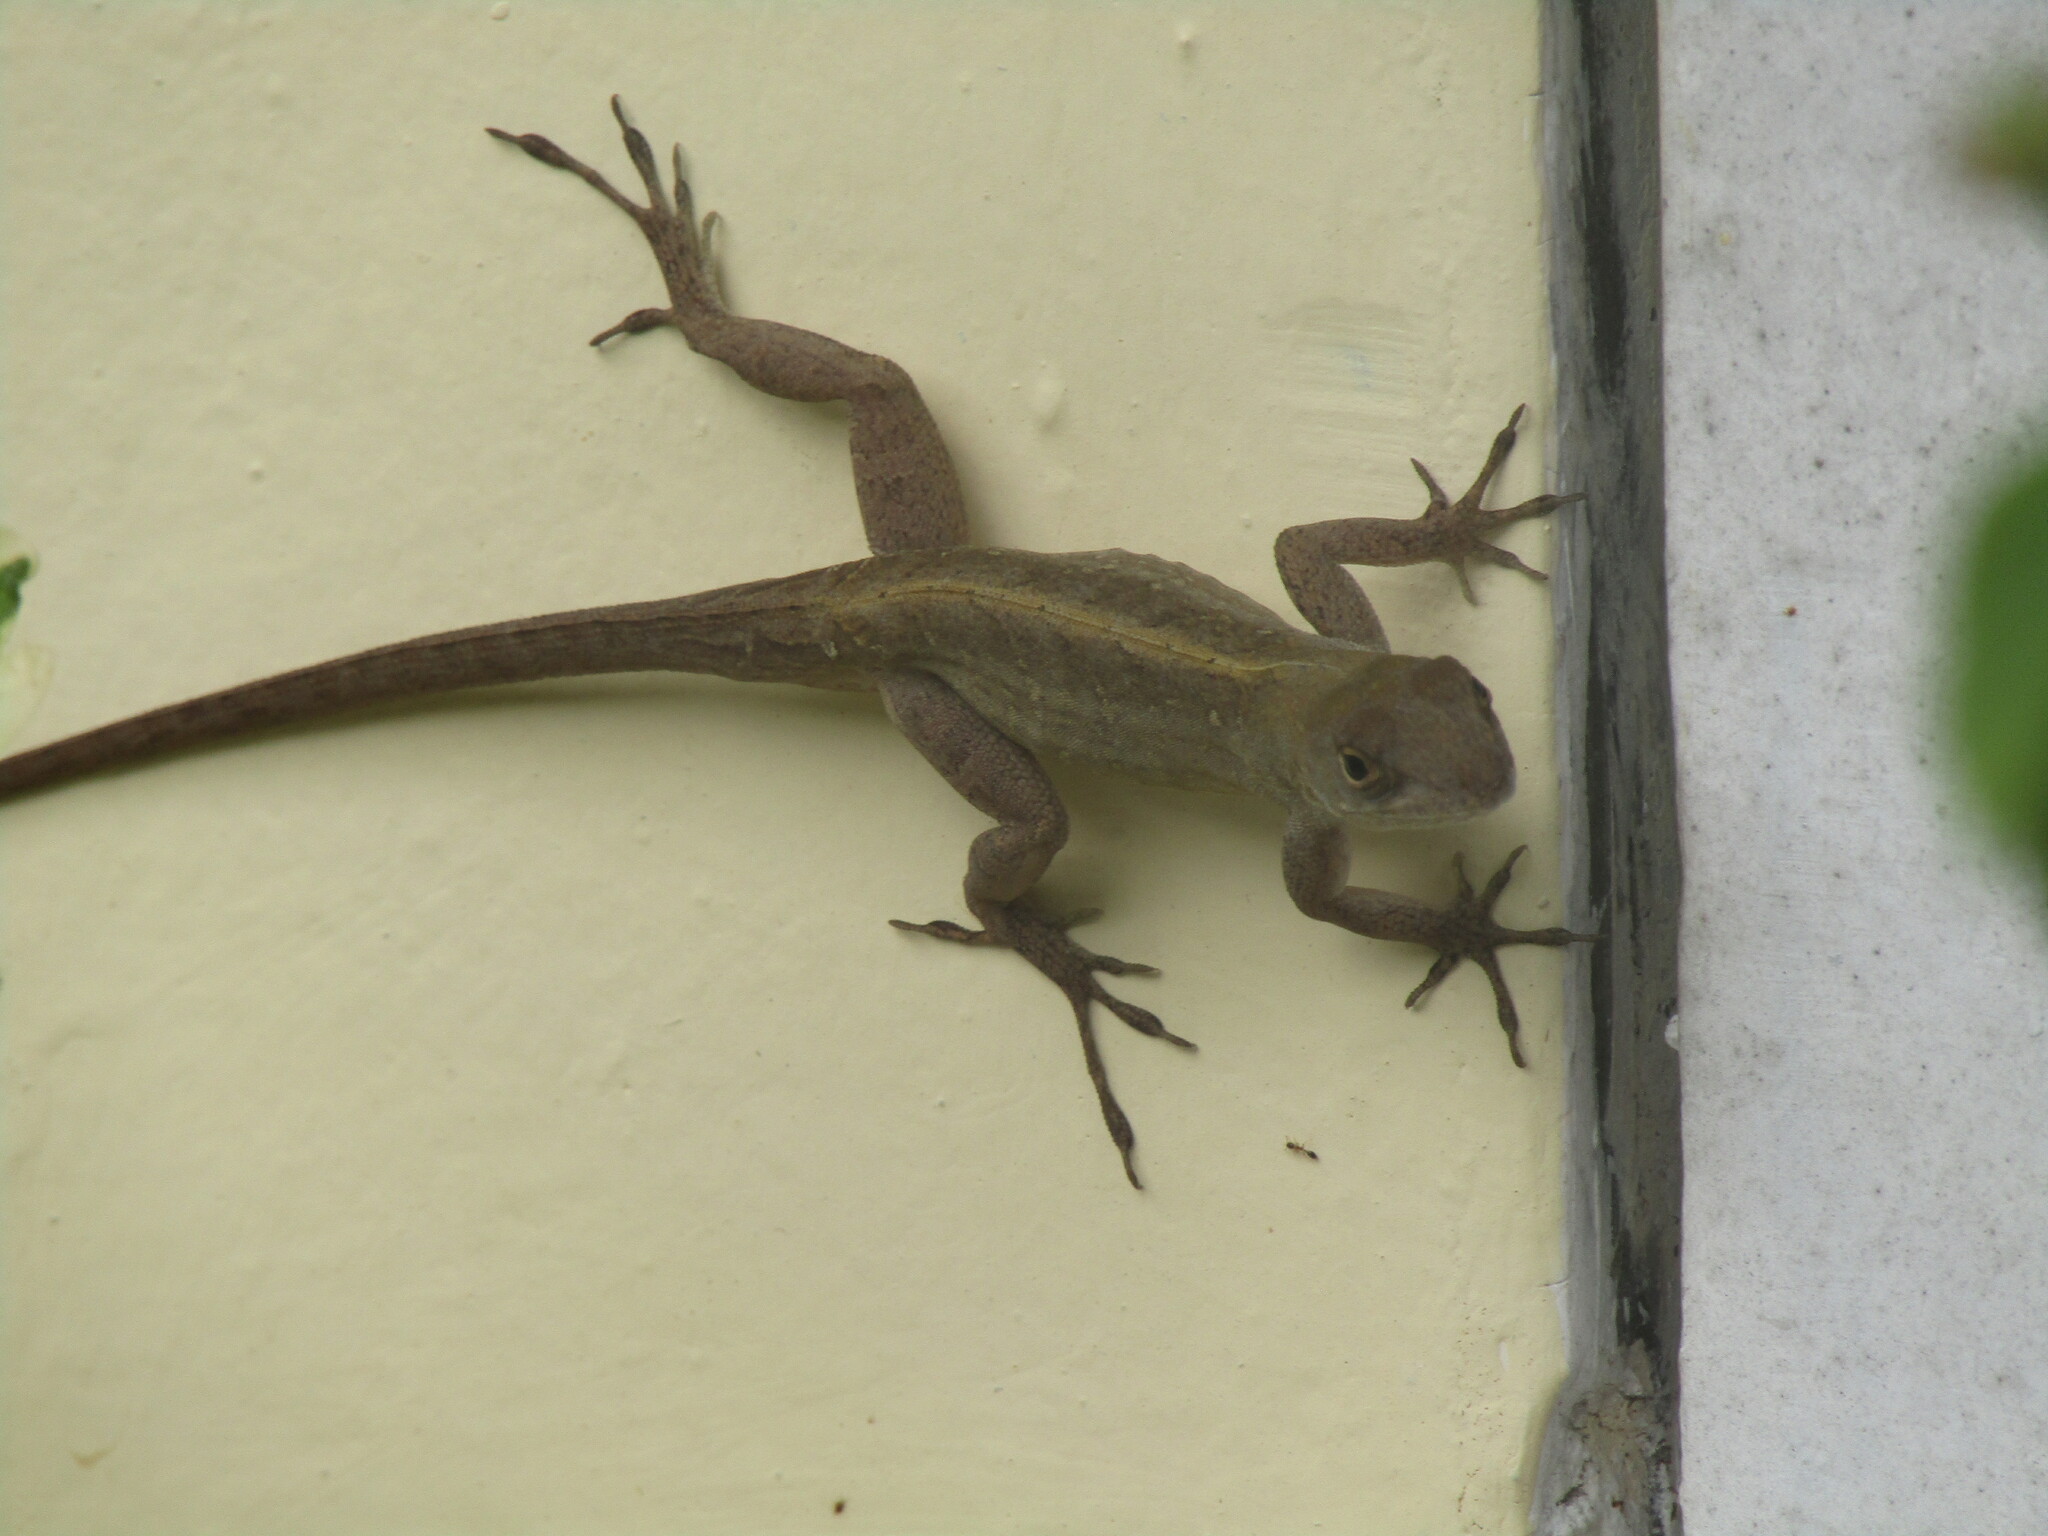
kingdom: Animalia
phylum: Chordata
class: Squamata
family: Dactyloidae
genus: Anolis
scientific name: Anolis sagrei
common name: Brown anole
